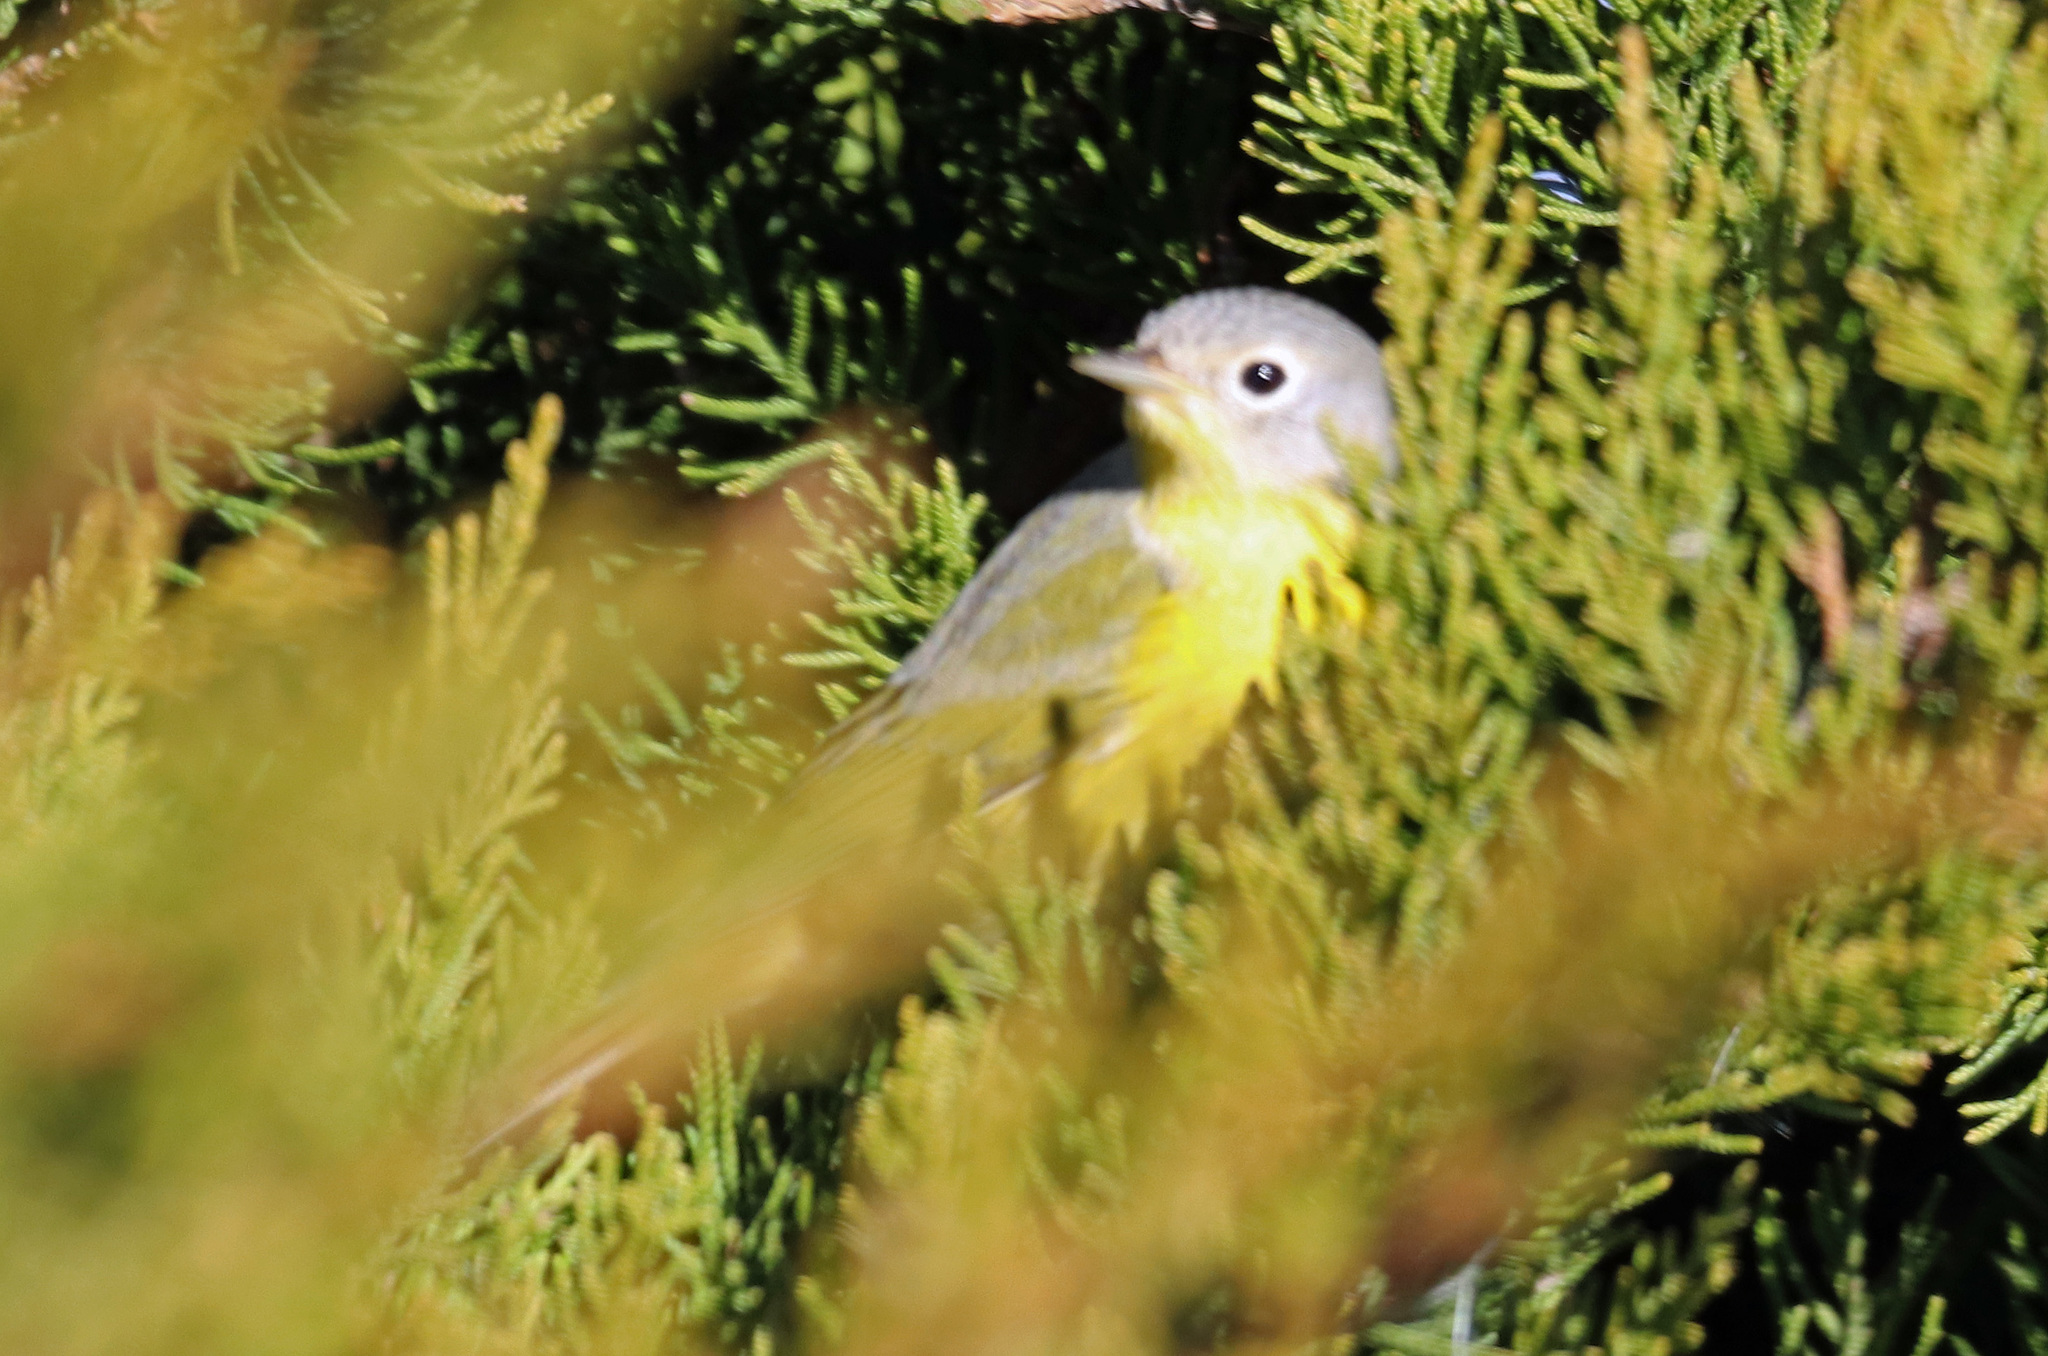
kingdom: Animalia
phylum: Chordata
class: Aves
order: Passeriformes
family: Parulidae
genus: Leiothlypis
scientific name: Leiothlypis ruficapilla
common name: Nashville warbler
